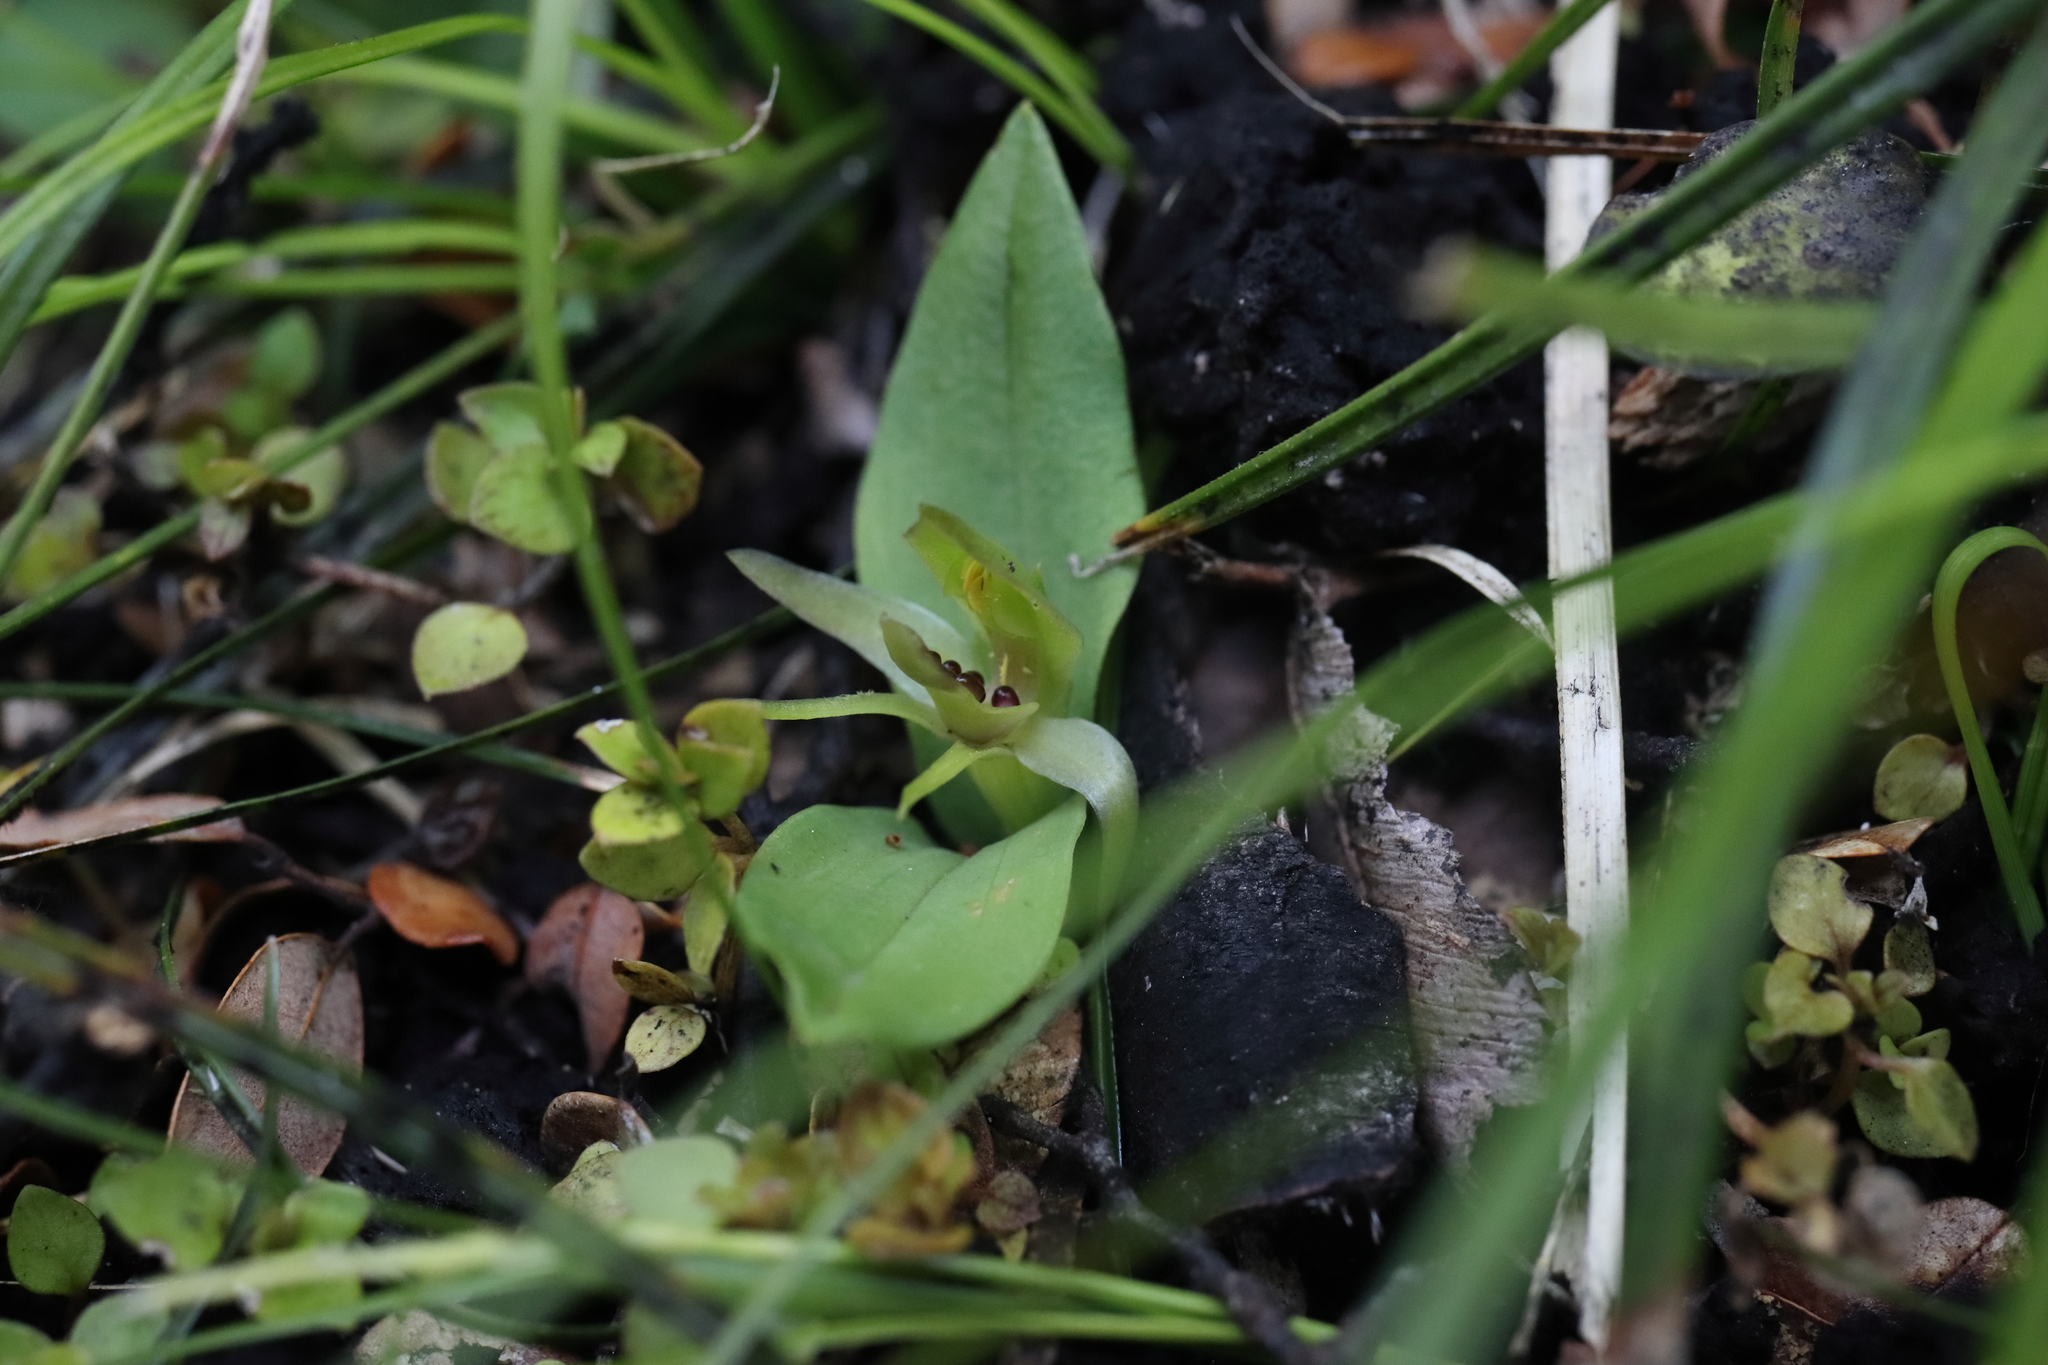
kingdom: Plantae
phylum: Tracheophyta
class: Liliopsida
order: Asparagales
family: Orchidaceae
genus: Chiloglottis
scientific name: Chiloglottis cornuta
